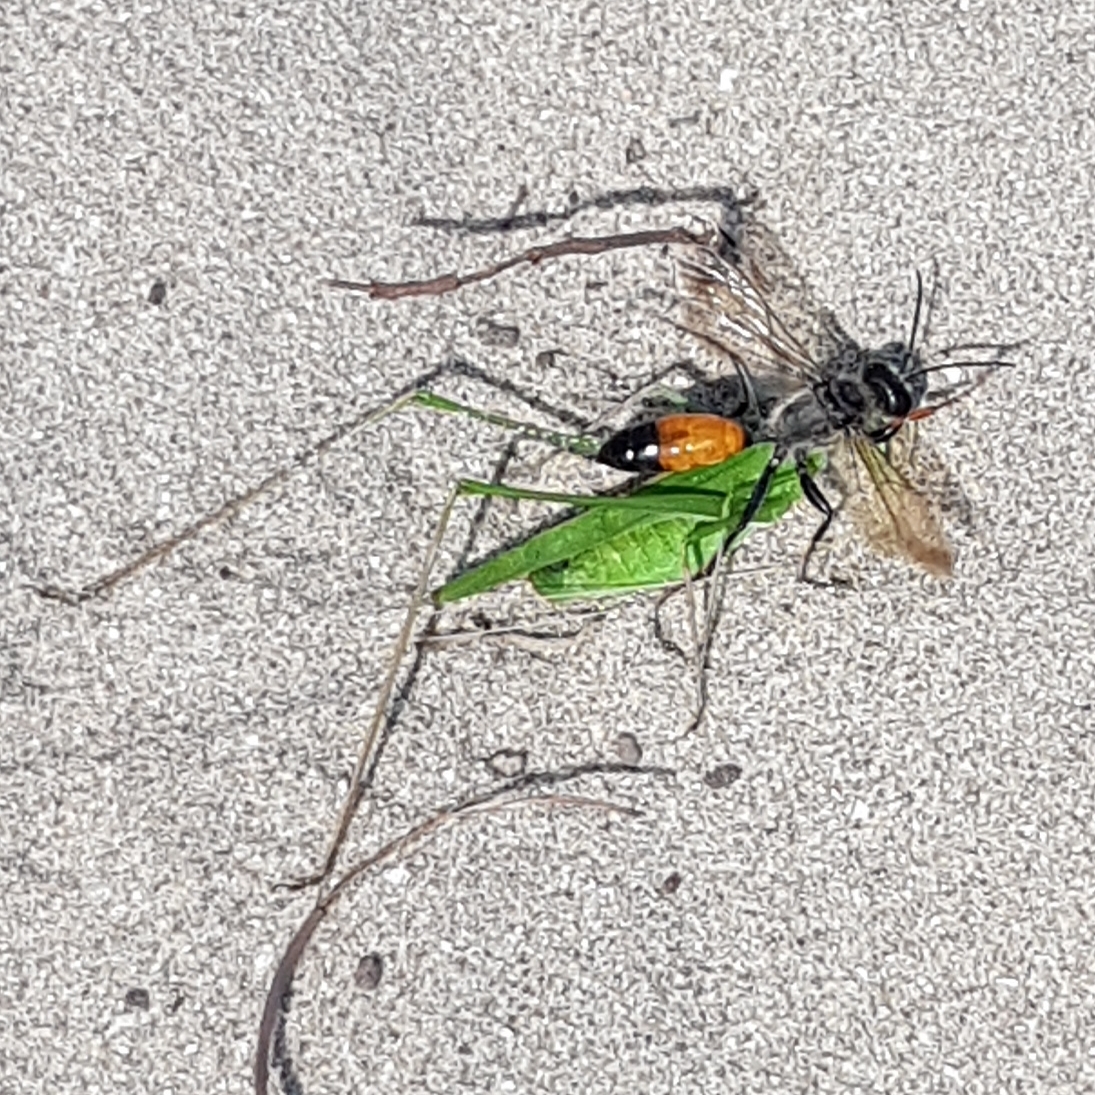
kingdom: Animalia
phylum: Arthropoda
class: Insecta
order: Hymenoptera
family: Sphecidae
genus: Sphex
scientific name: Sphex funerarius
